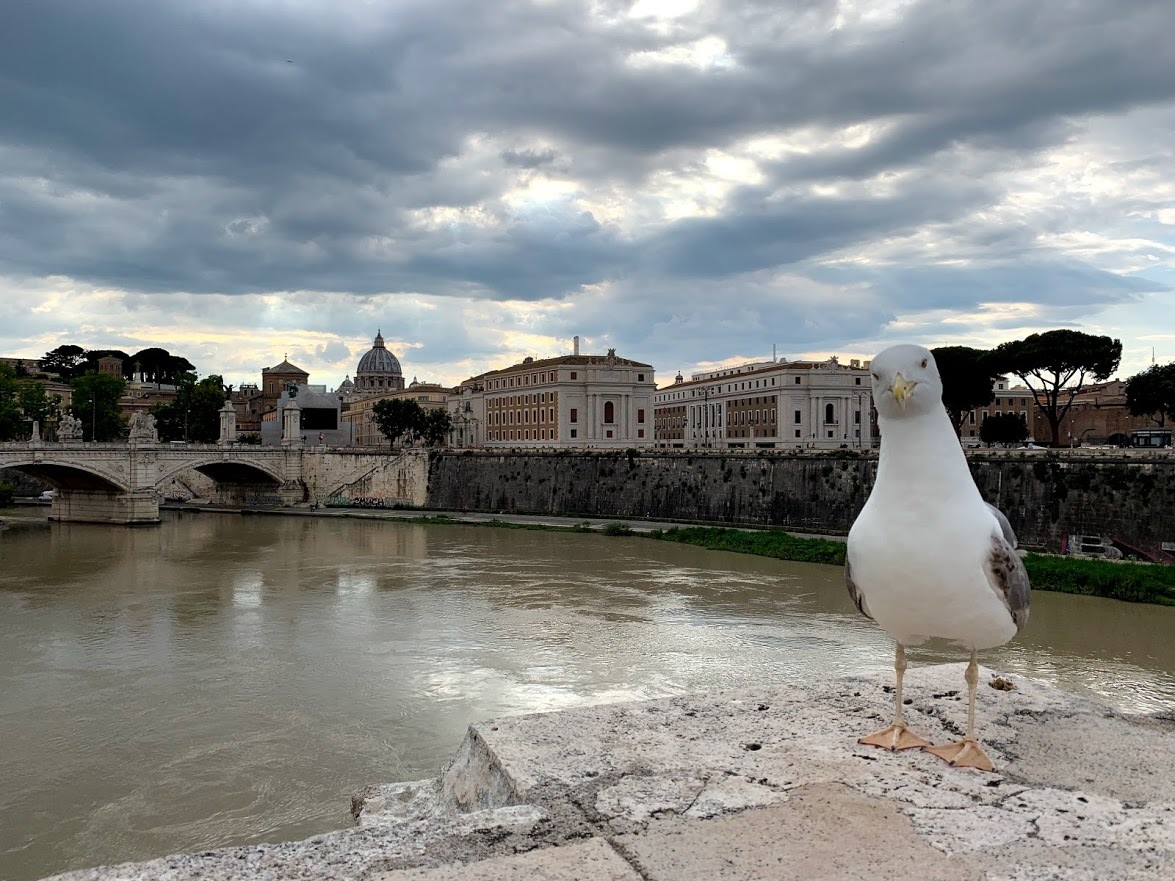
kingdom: Animalia
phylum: Chordata
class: Aves
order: Charadriiformes
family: Laridae
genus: Larus
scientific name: Larus michahellis
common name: Yellow-legged gull
